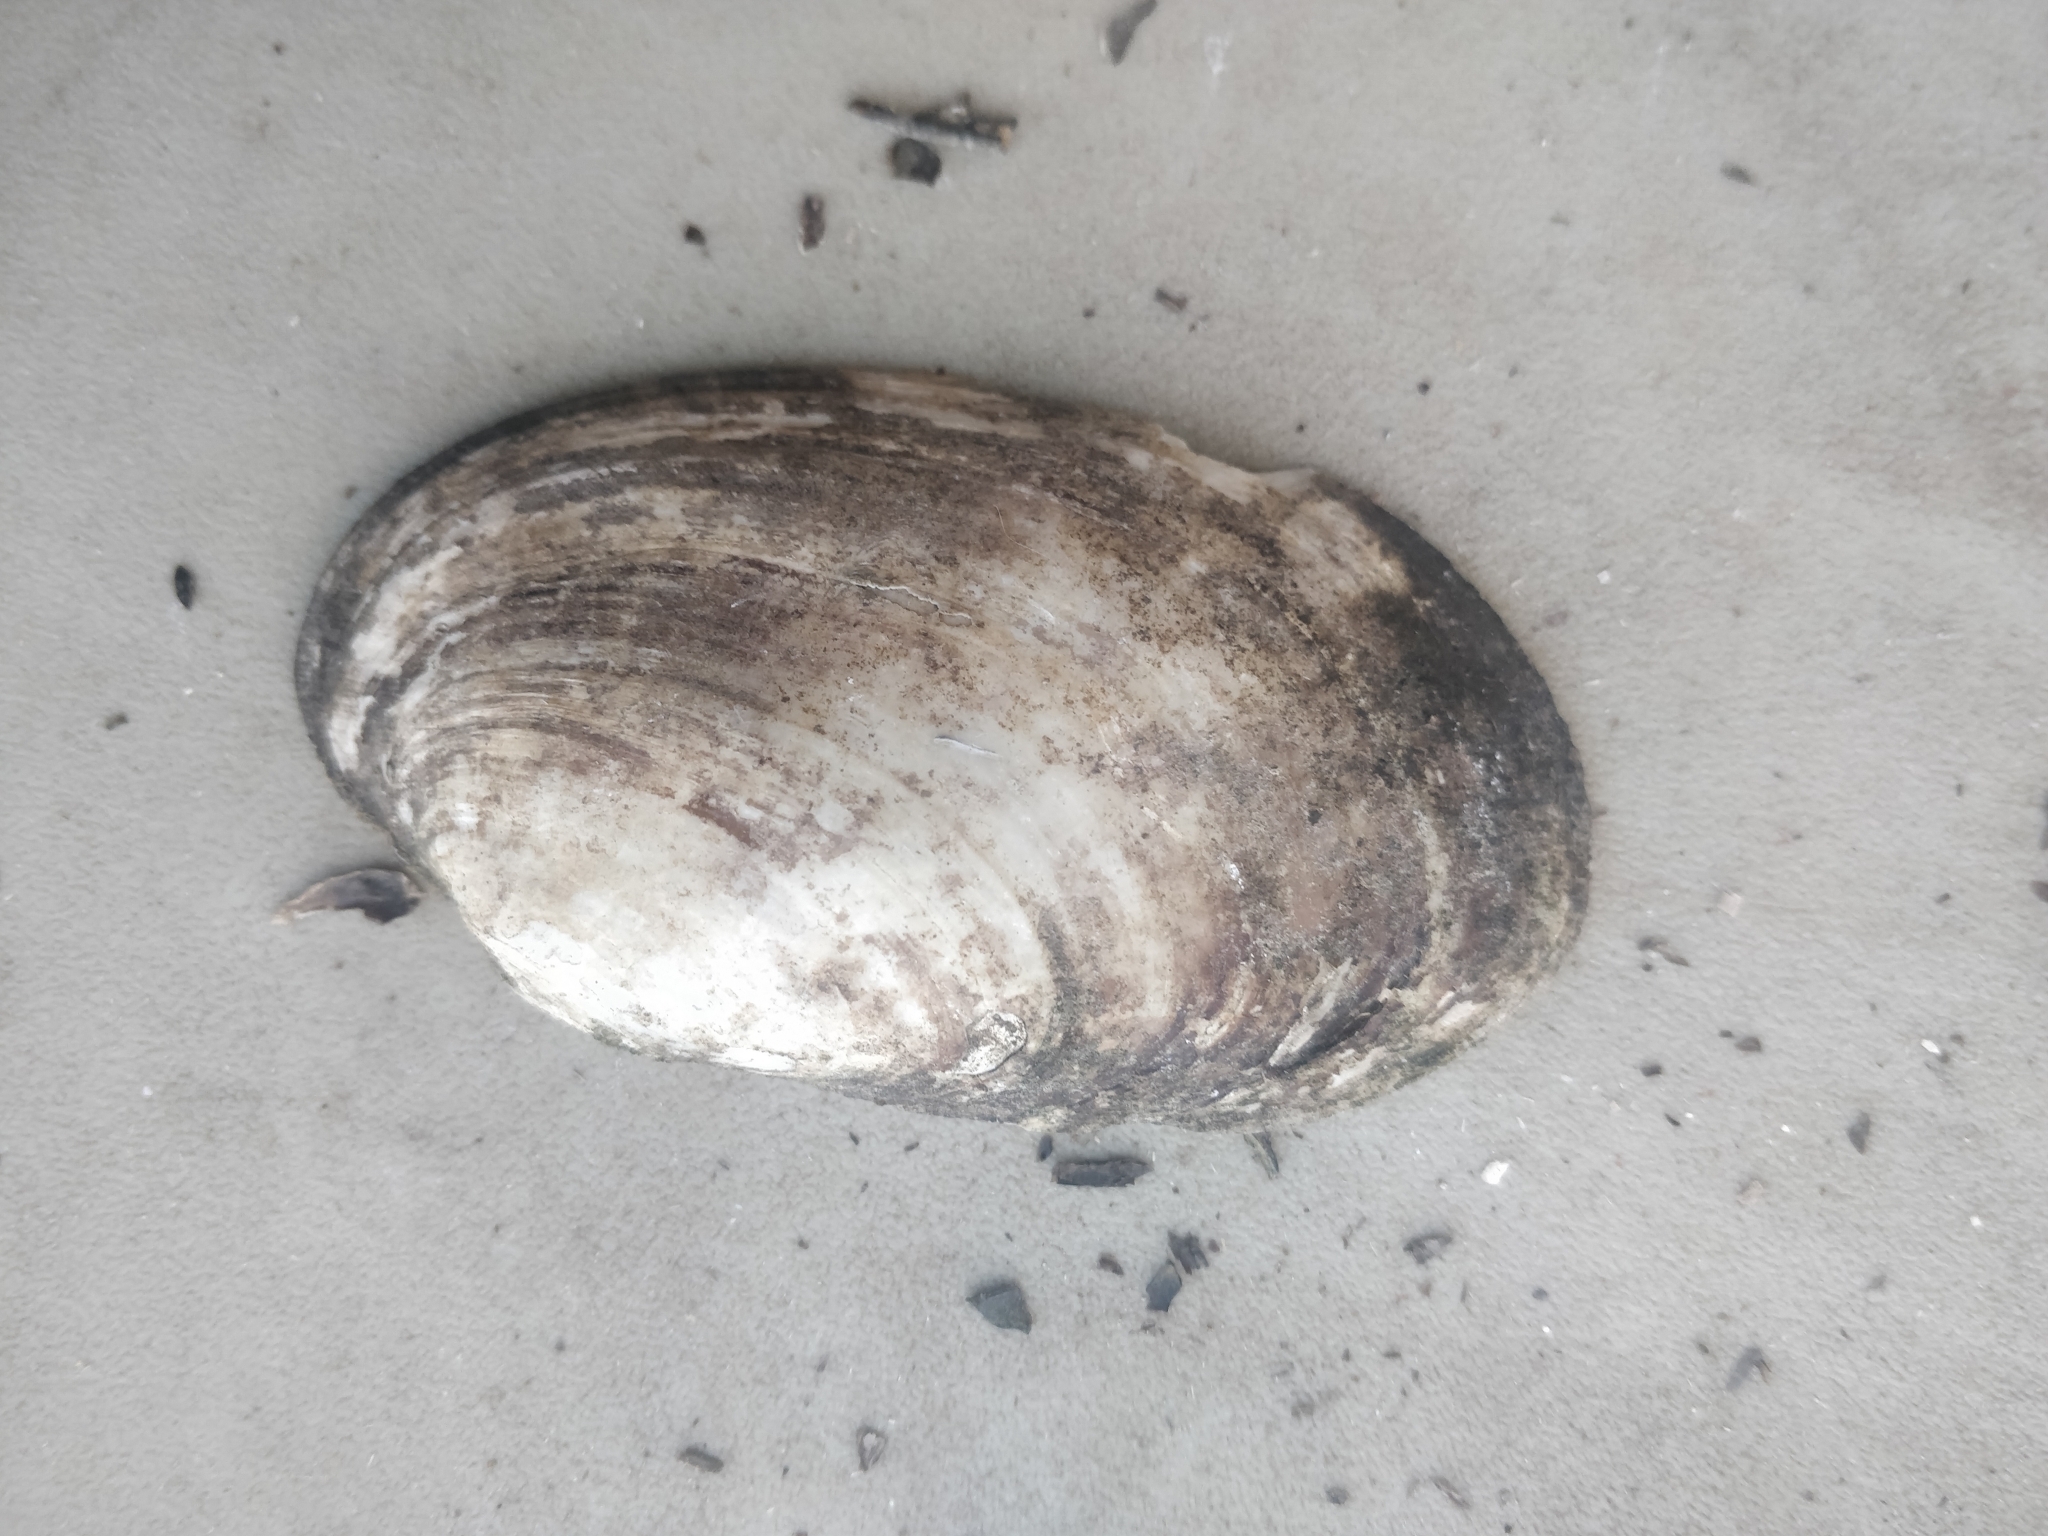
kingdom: Animalia
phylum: Mollusca
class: Bivalvia
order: Unionida
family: Unionidae
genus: Lampsilis
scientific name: Lampsilis siliquoidea
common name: Fatmucket
